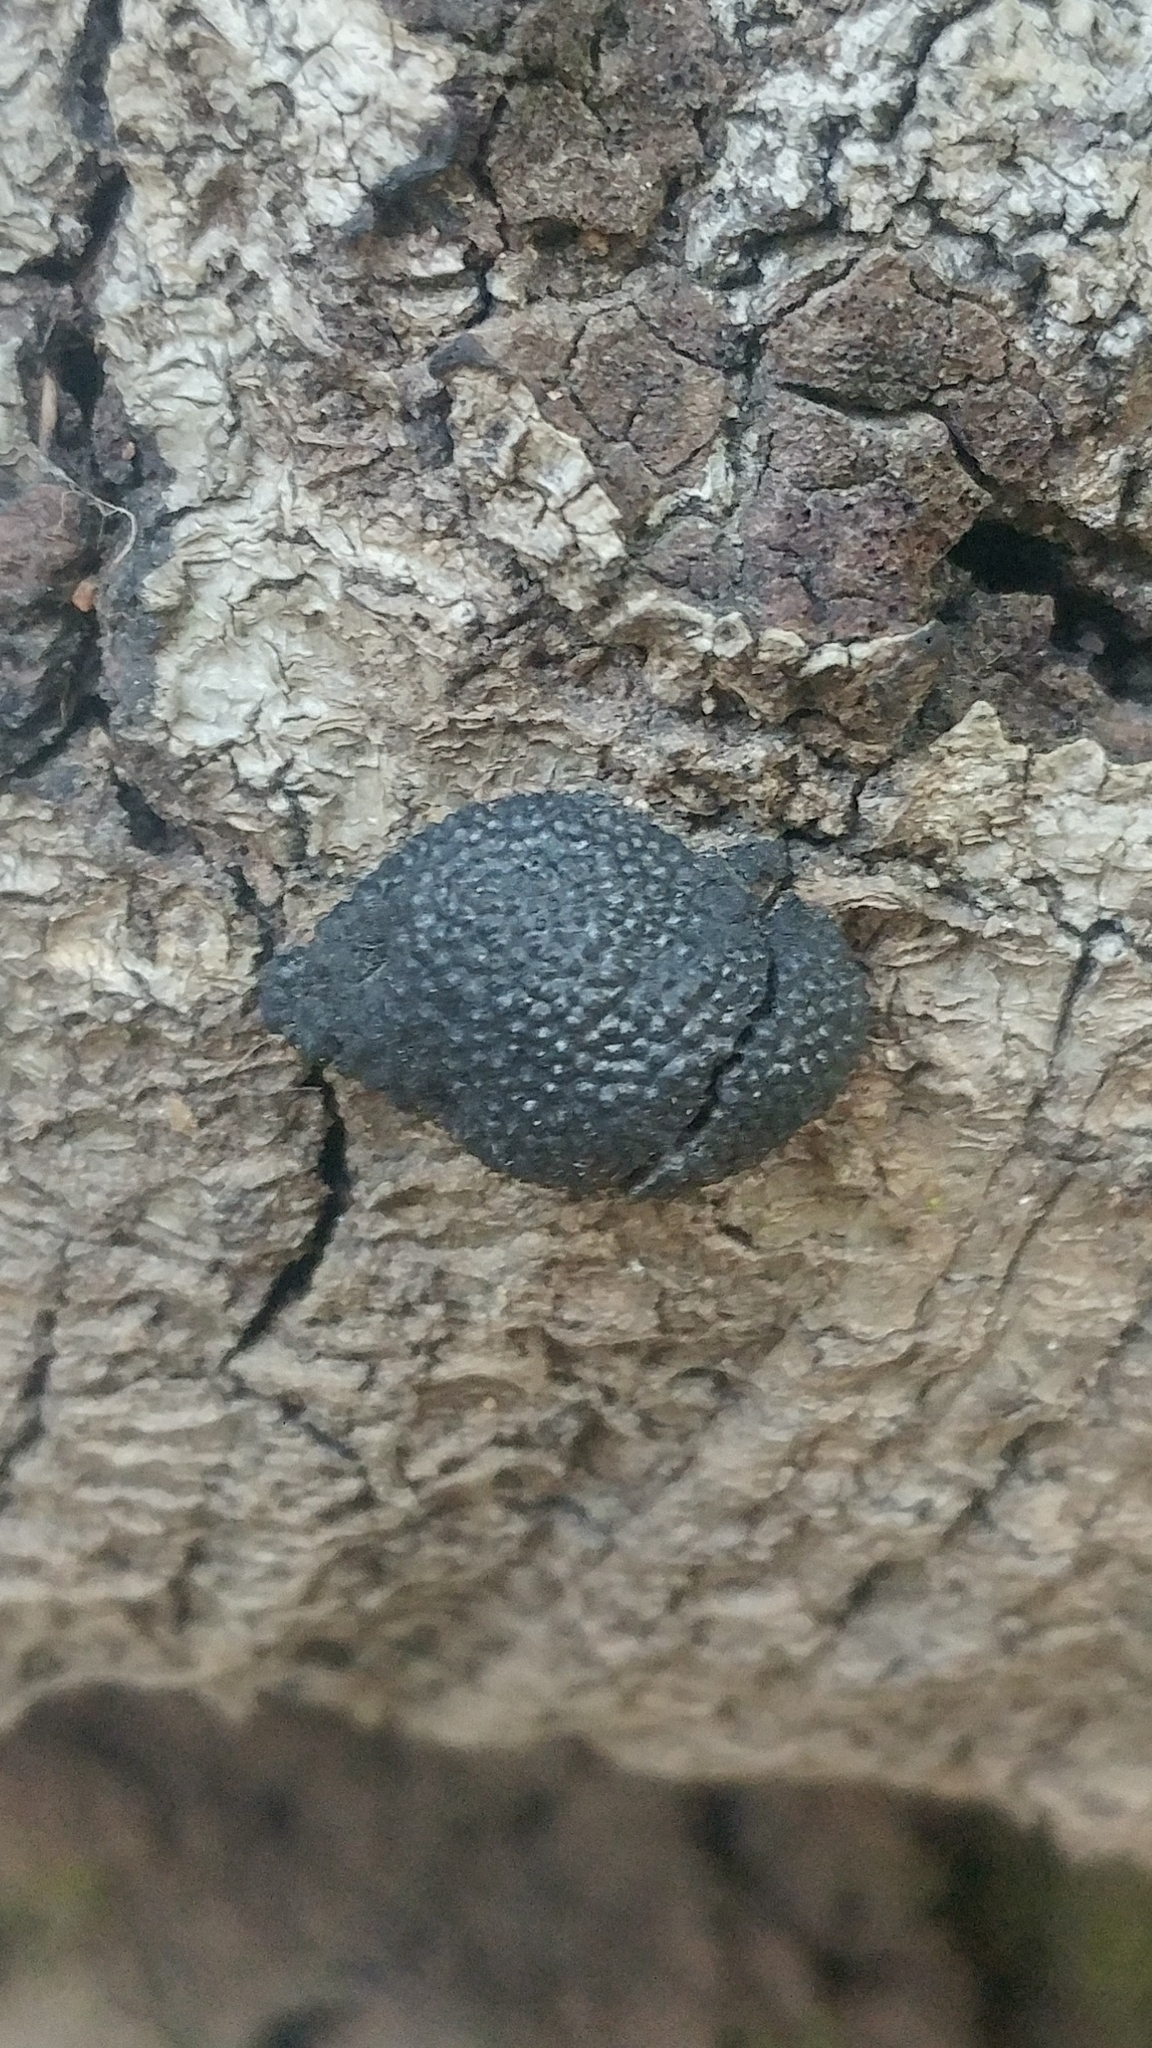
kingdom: Fungi
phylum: Ascomycota
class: Sordariomycetes
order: Xylariales
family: Hypoxylaceae
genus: Annulohypoxylon
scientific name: Annulohypoxylon thouarsianum
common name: Cramp balls
